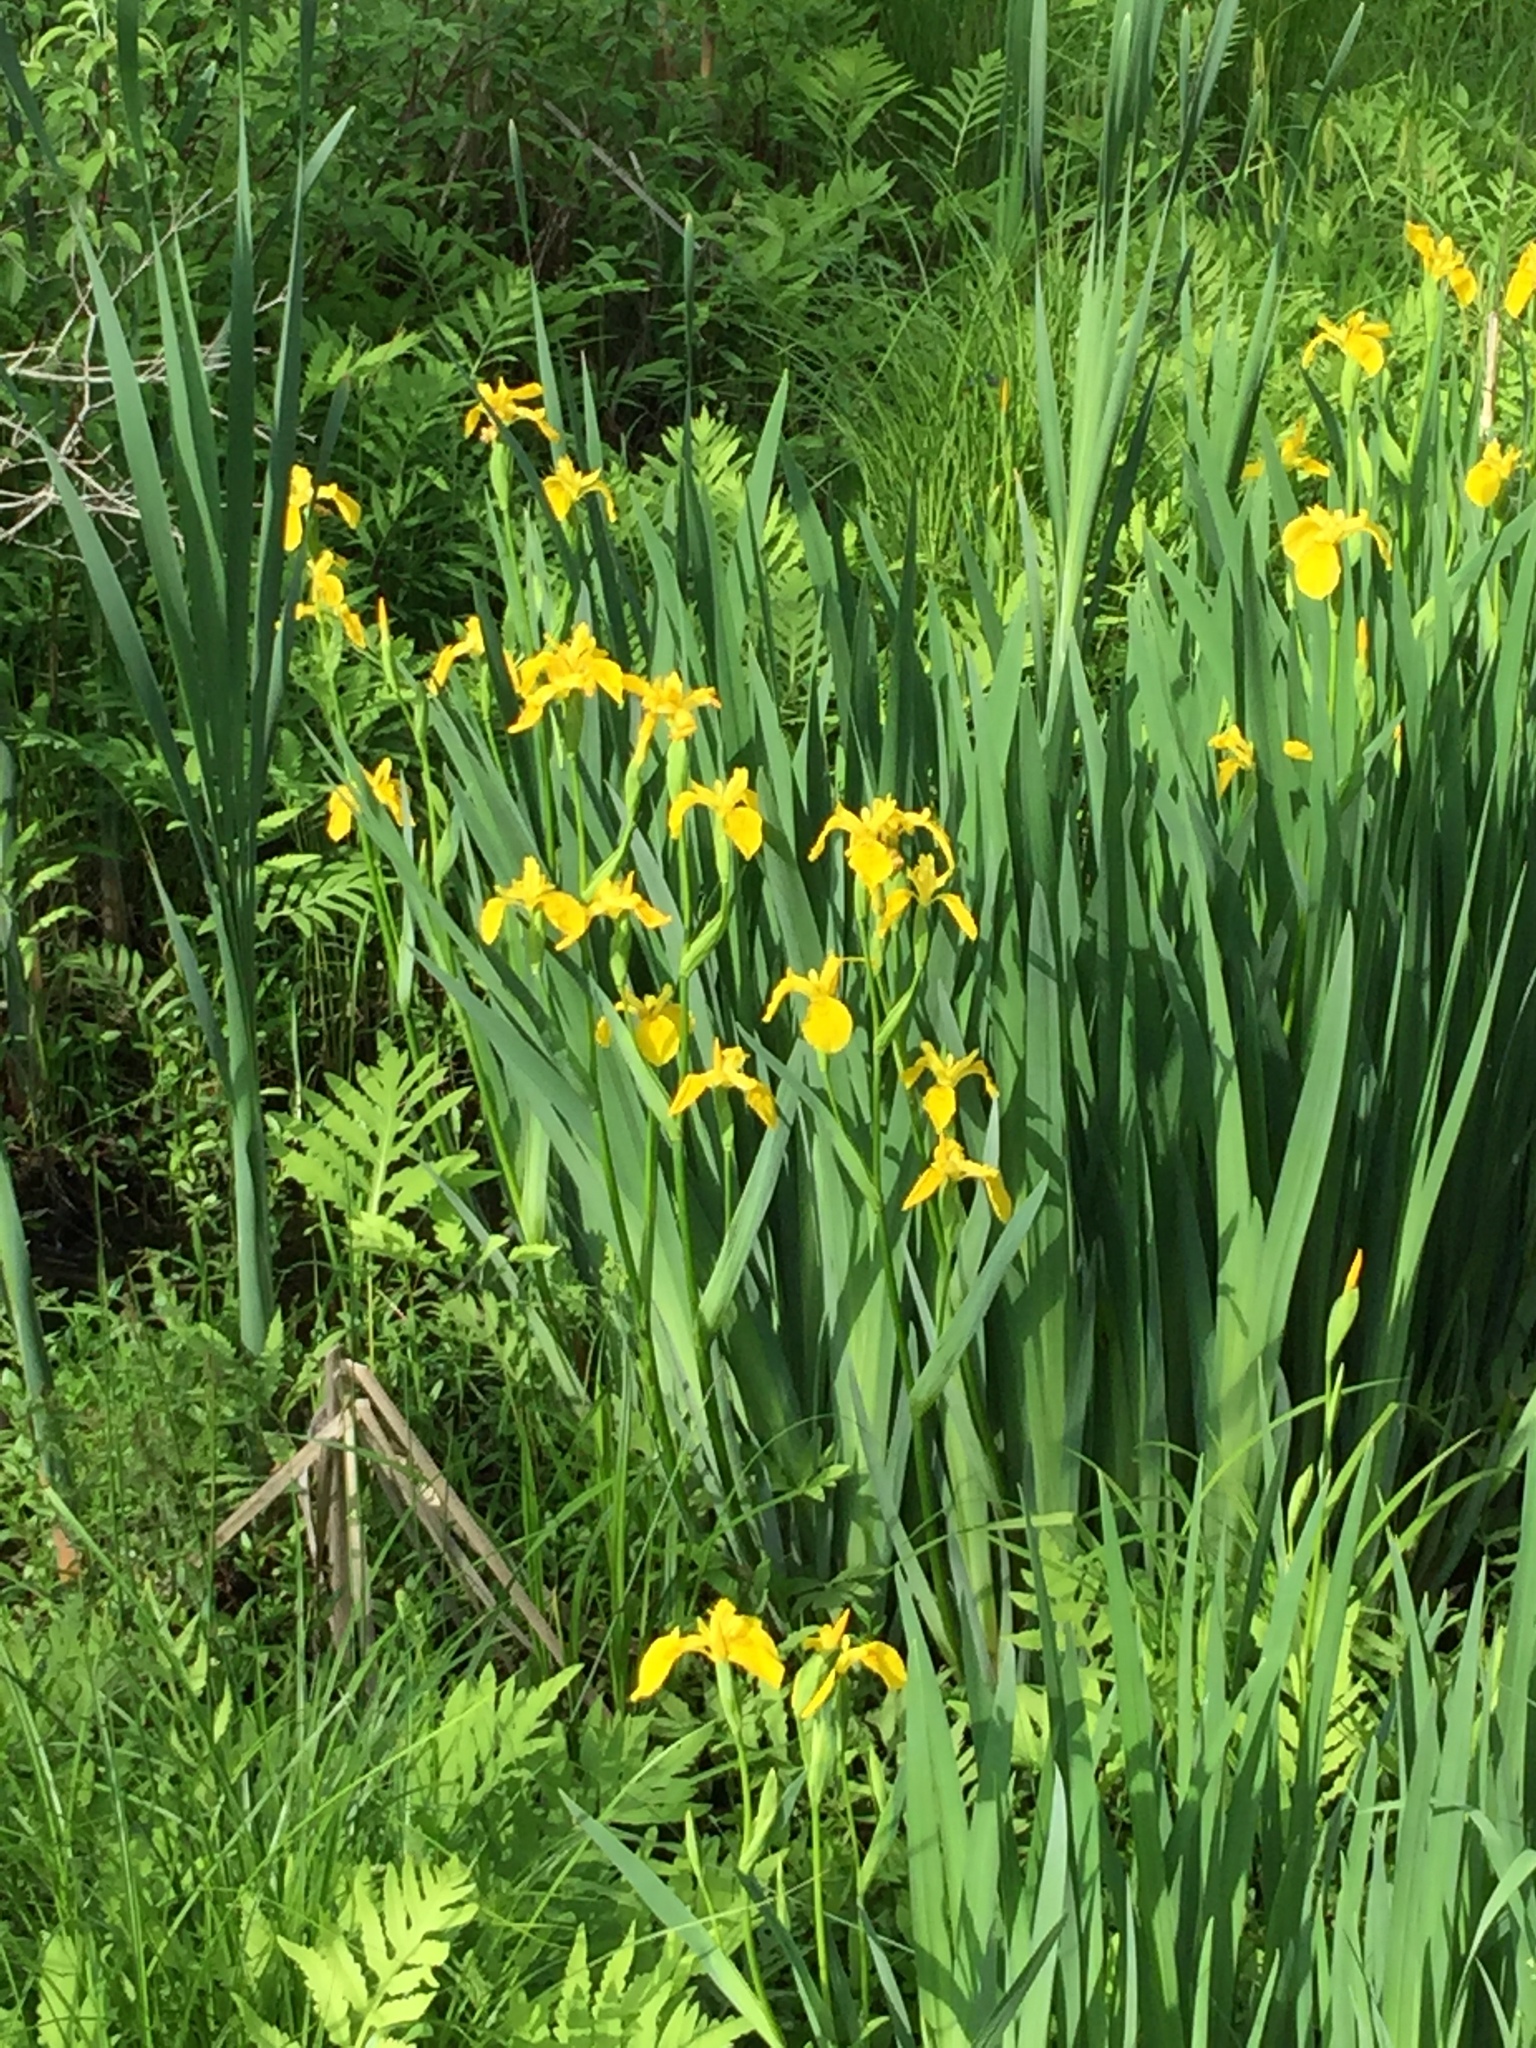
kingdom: Plantae
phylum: Tracheophyta
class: Liliopsida
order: Asparagales
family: Iridaceae
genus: Iris
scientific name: Iris pseudacorus
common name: Yellow flag
